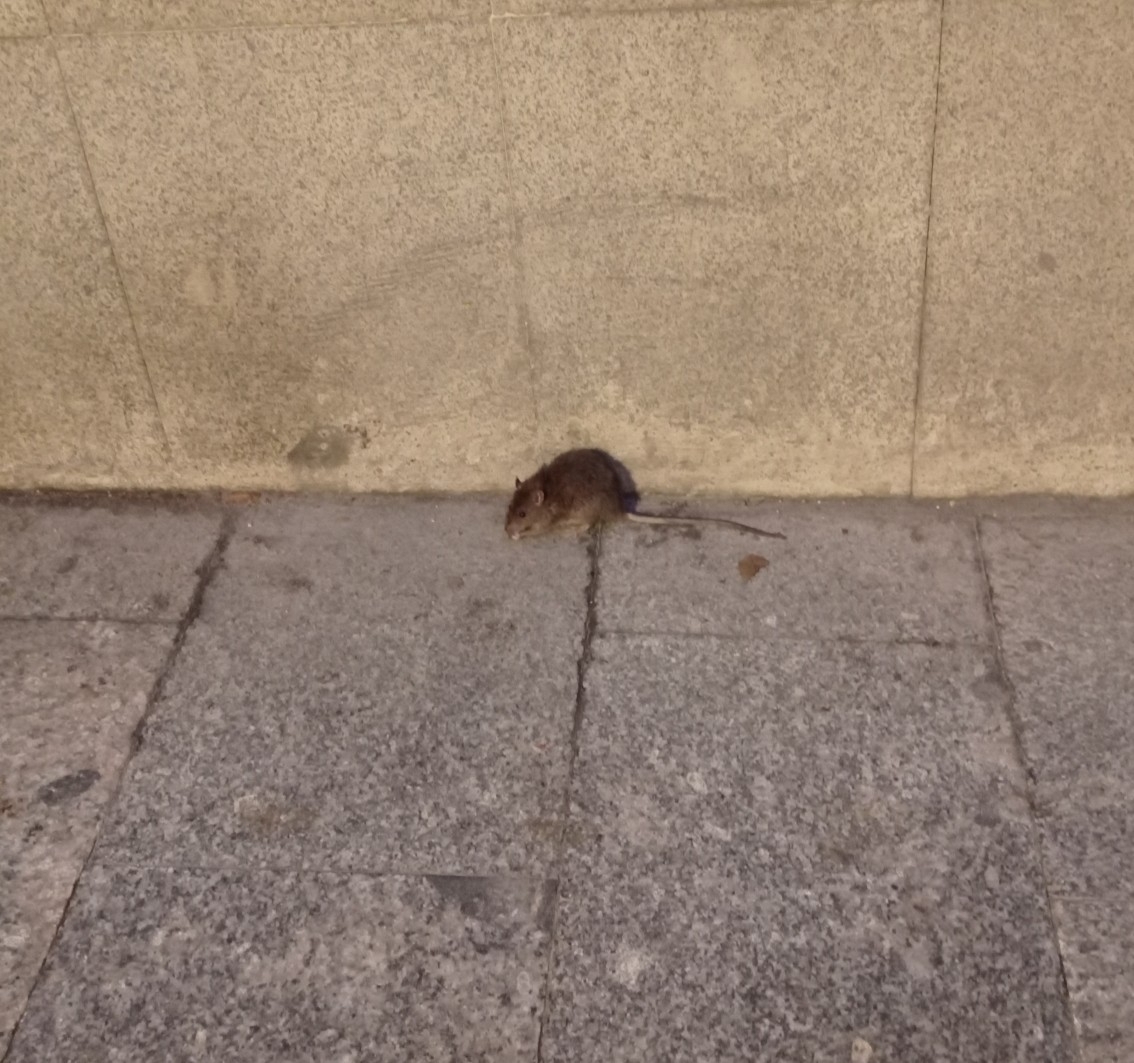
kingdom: Animalia
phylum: Chordata
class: Mammalia
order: Rodentia
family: Muridae
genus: Rattus
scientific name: Rattus rattus
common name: Black rat
